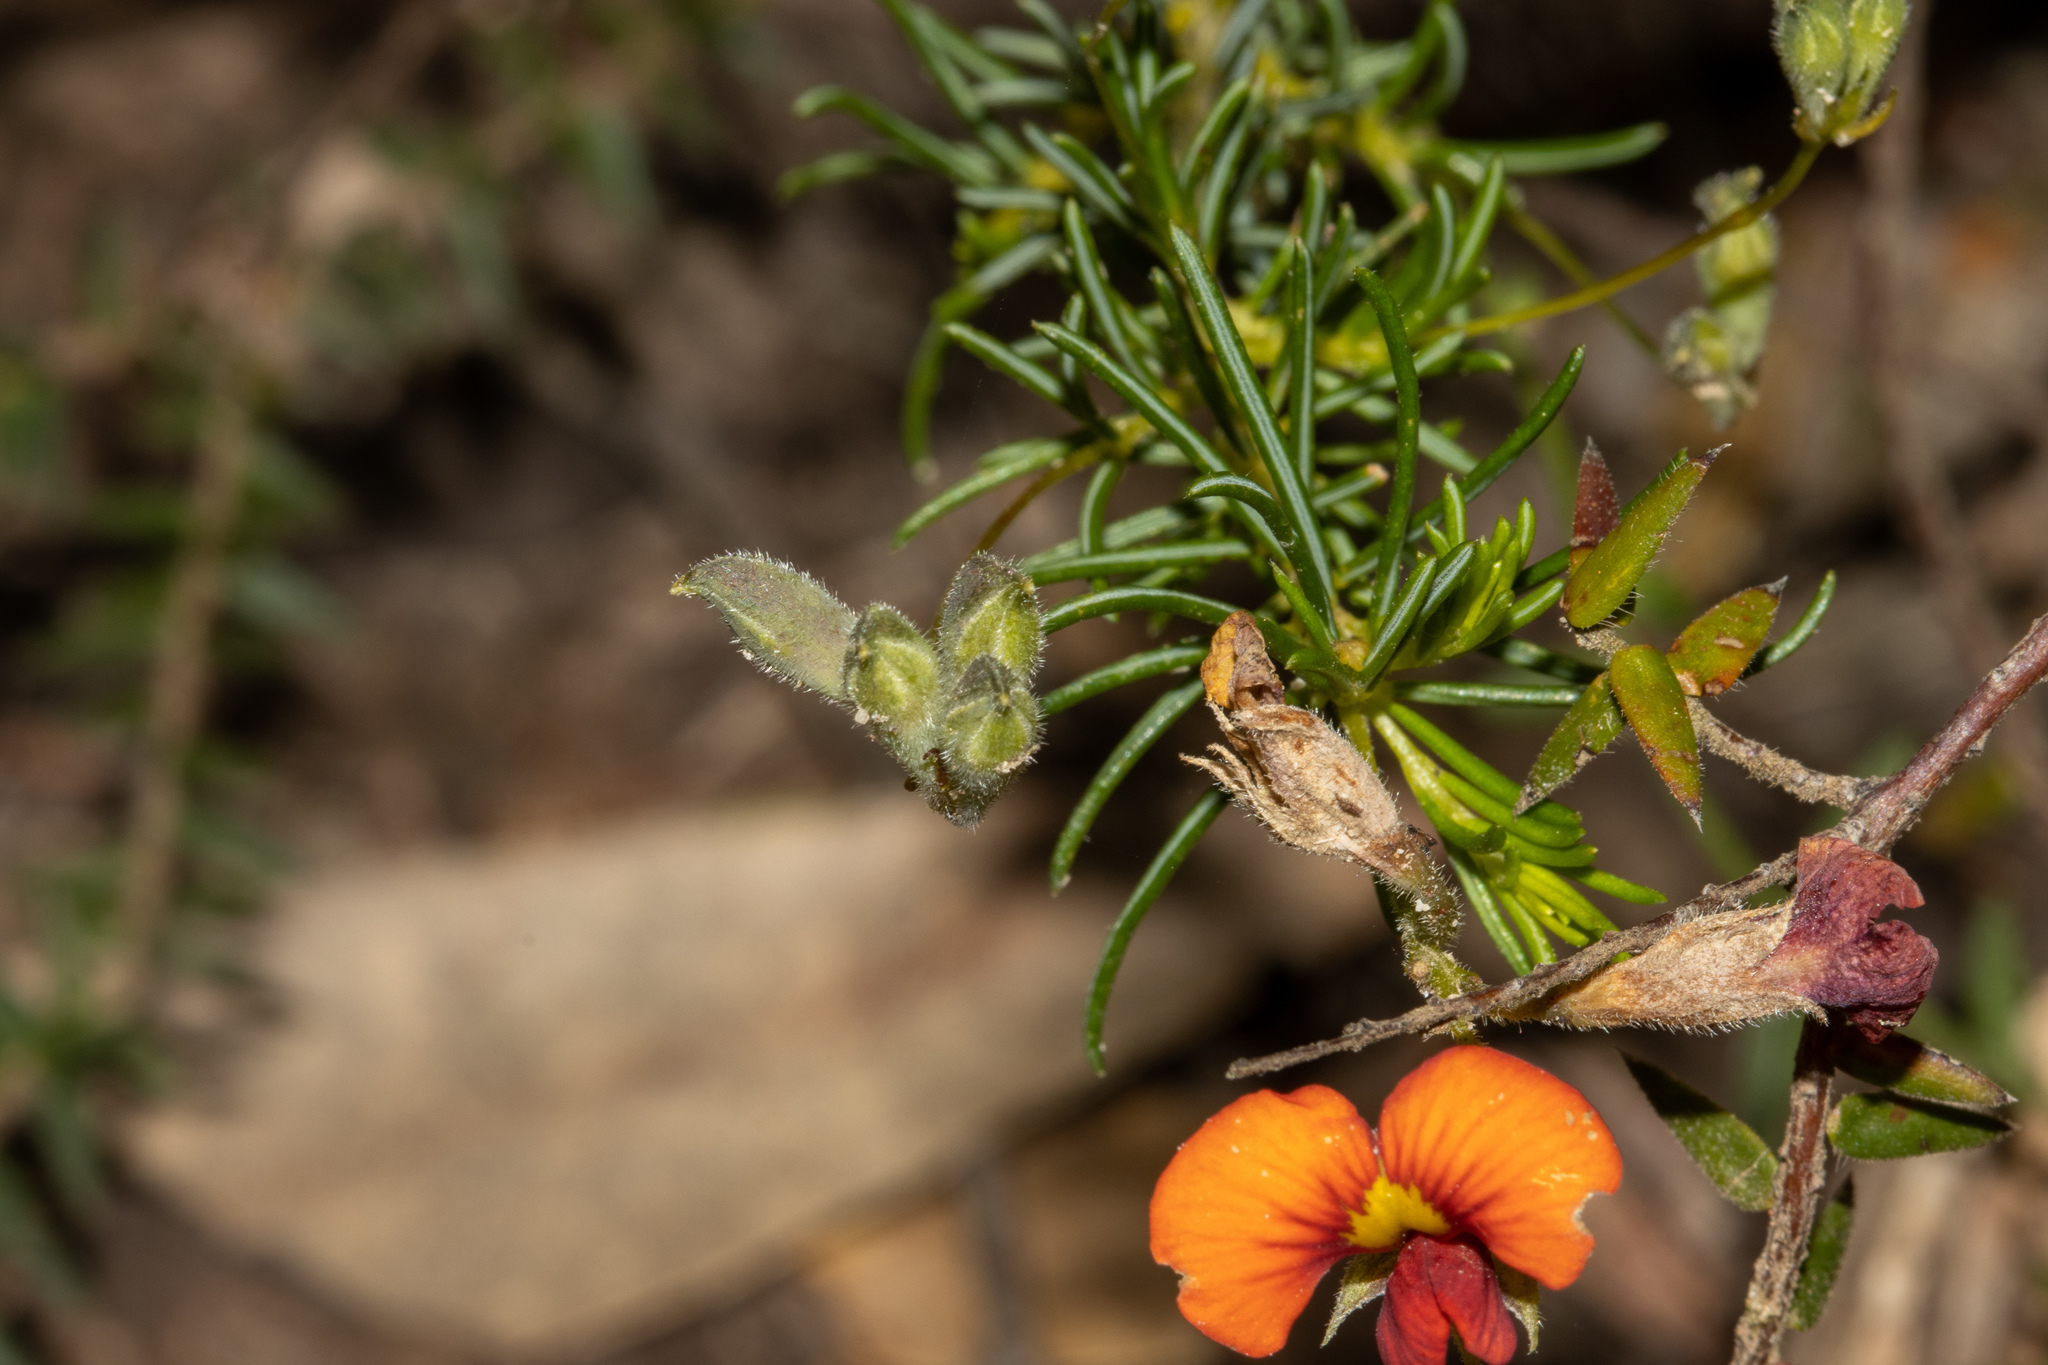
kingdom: Plantae
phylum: Tracheophyta
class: Magnoliopsida
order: Fabales
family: Fabaceae
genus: Dillwynia
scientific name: Dillwynia hispida
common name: Red parrot-pea
